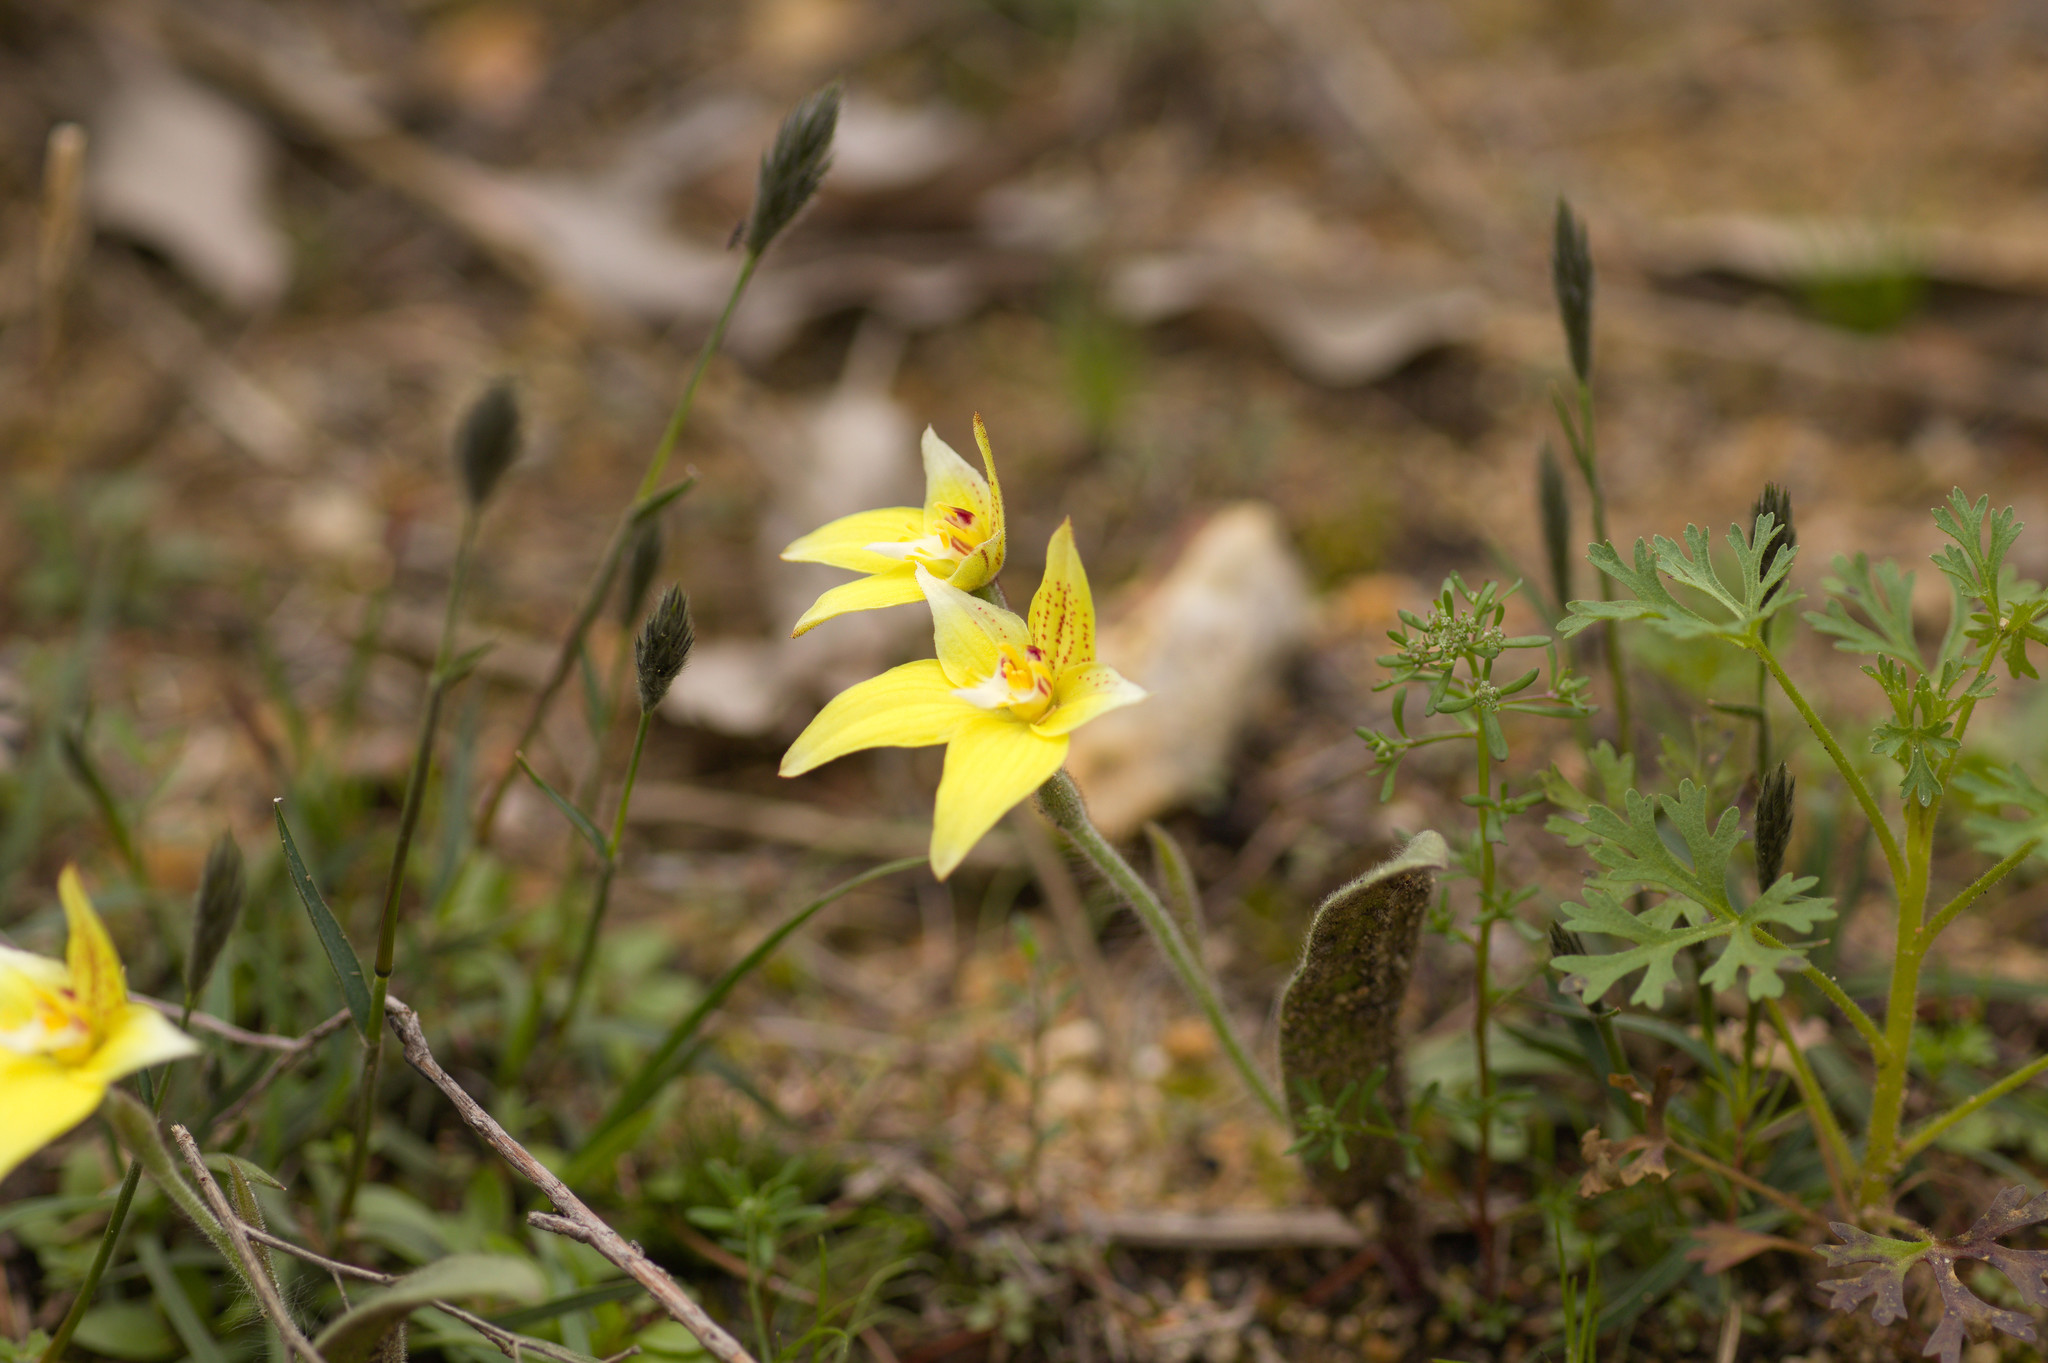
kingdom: Plantae
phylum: Tracheophyta
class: Liliopsida
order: Asparagales
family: Orchidaceae
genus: Caladenia
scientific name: Caladenia flava
